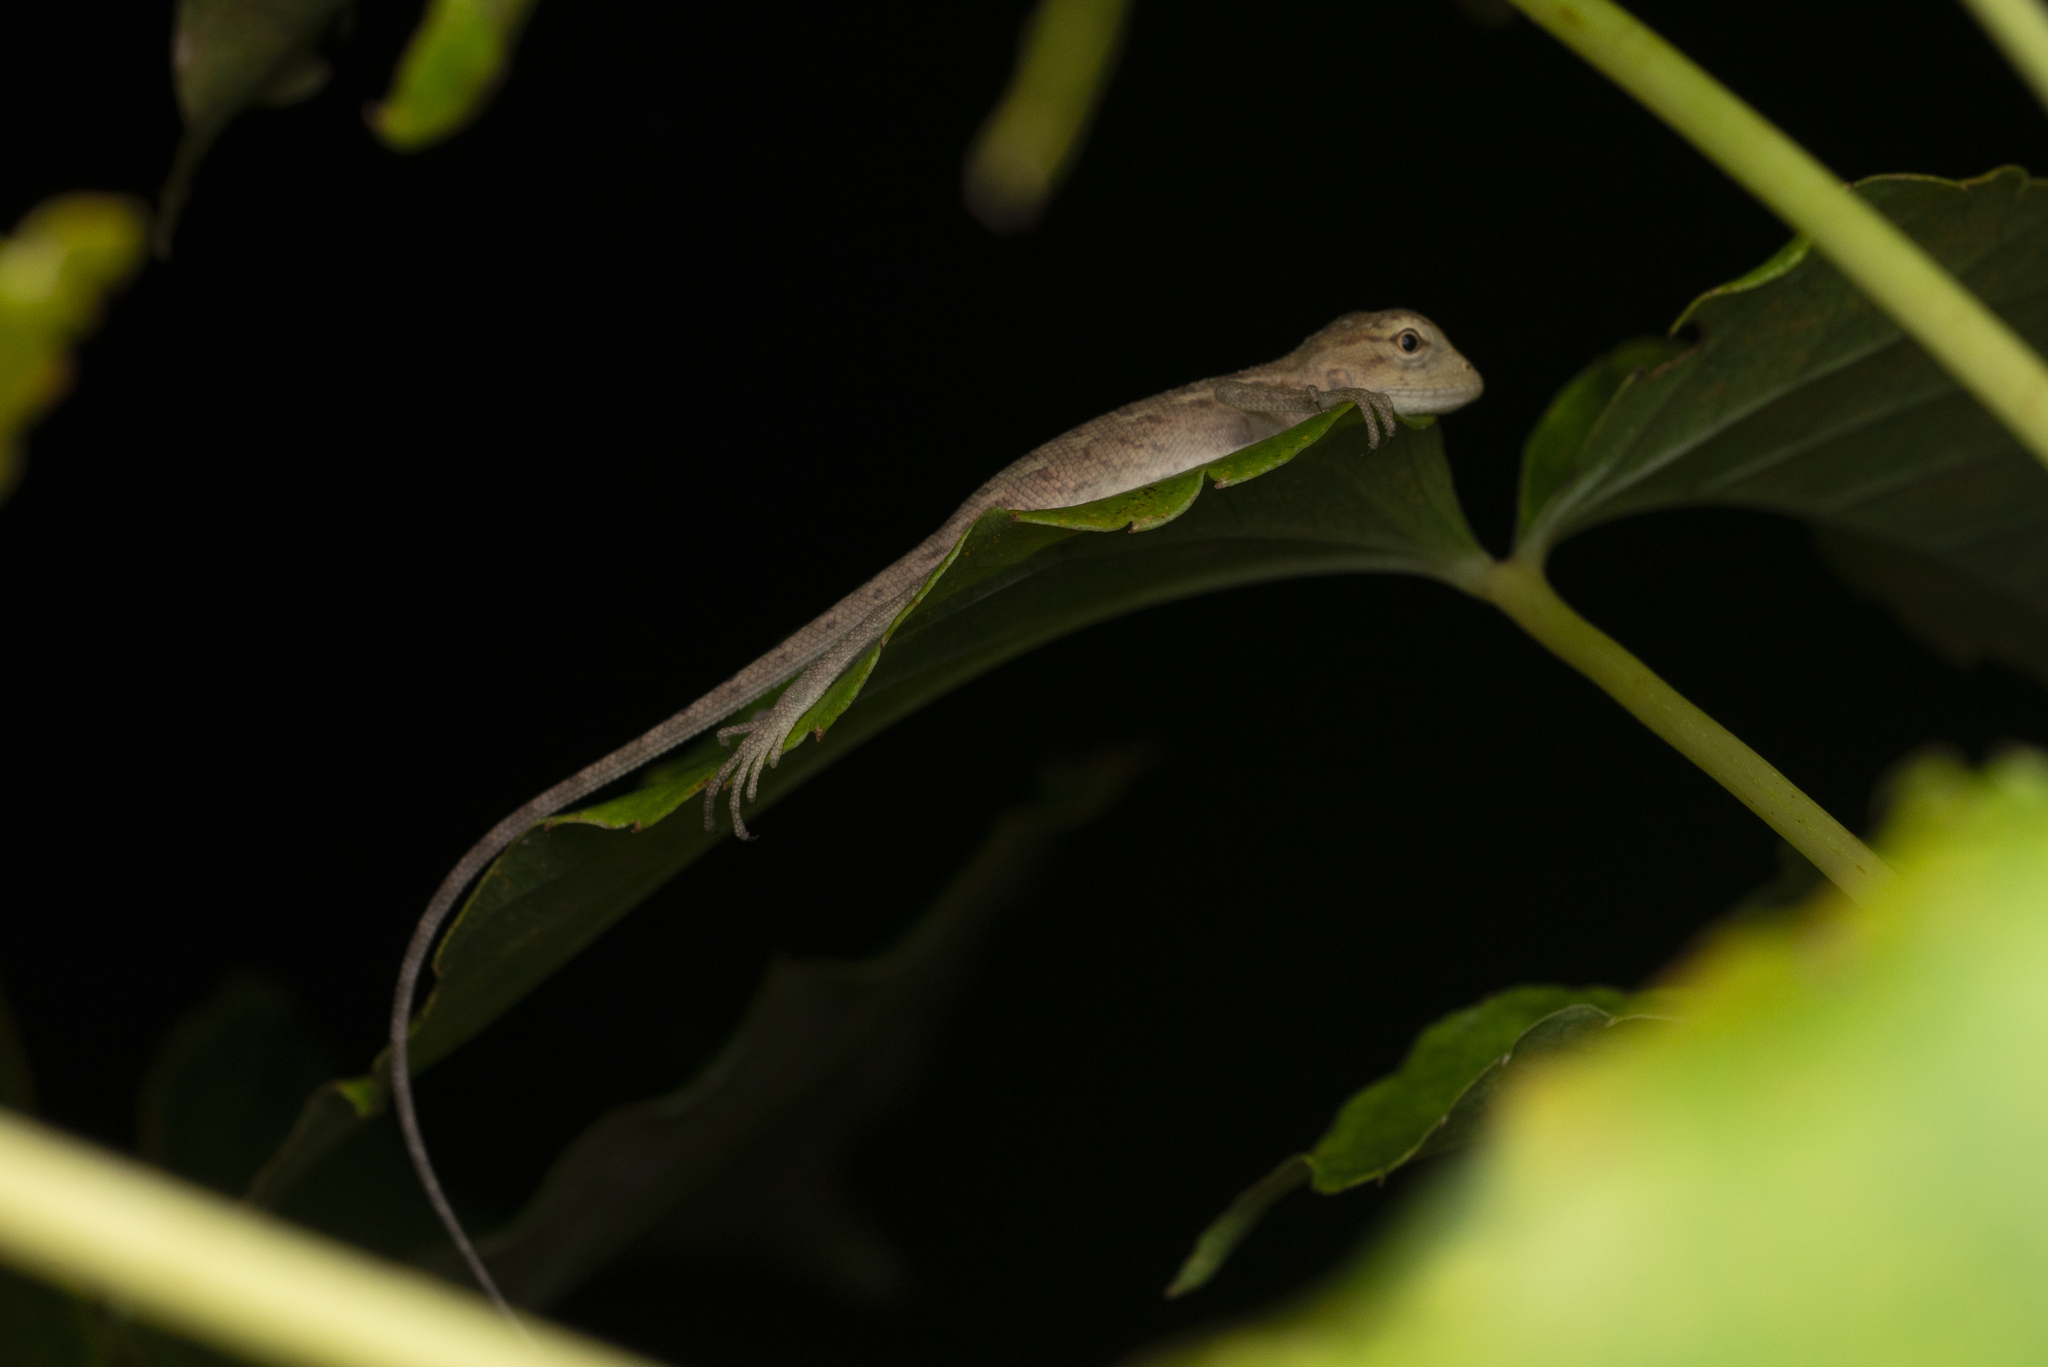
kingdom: Animalia
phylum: Chordata
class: Squamata
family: Agamidae
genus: Calotes
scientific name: Calotes versicolor
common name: Oriental garden lizard
